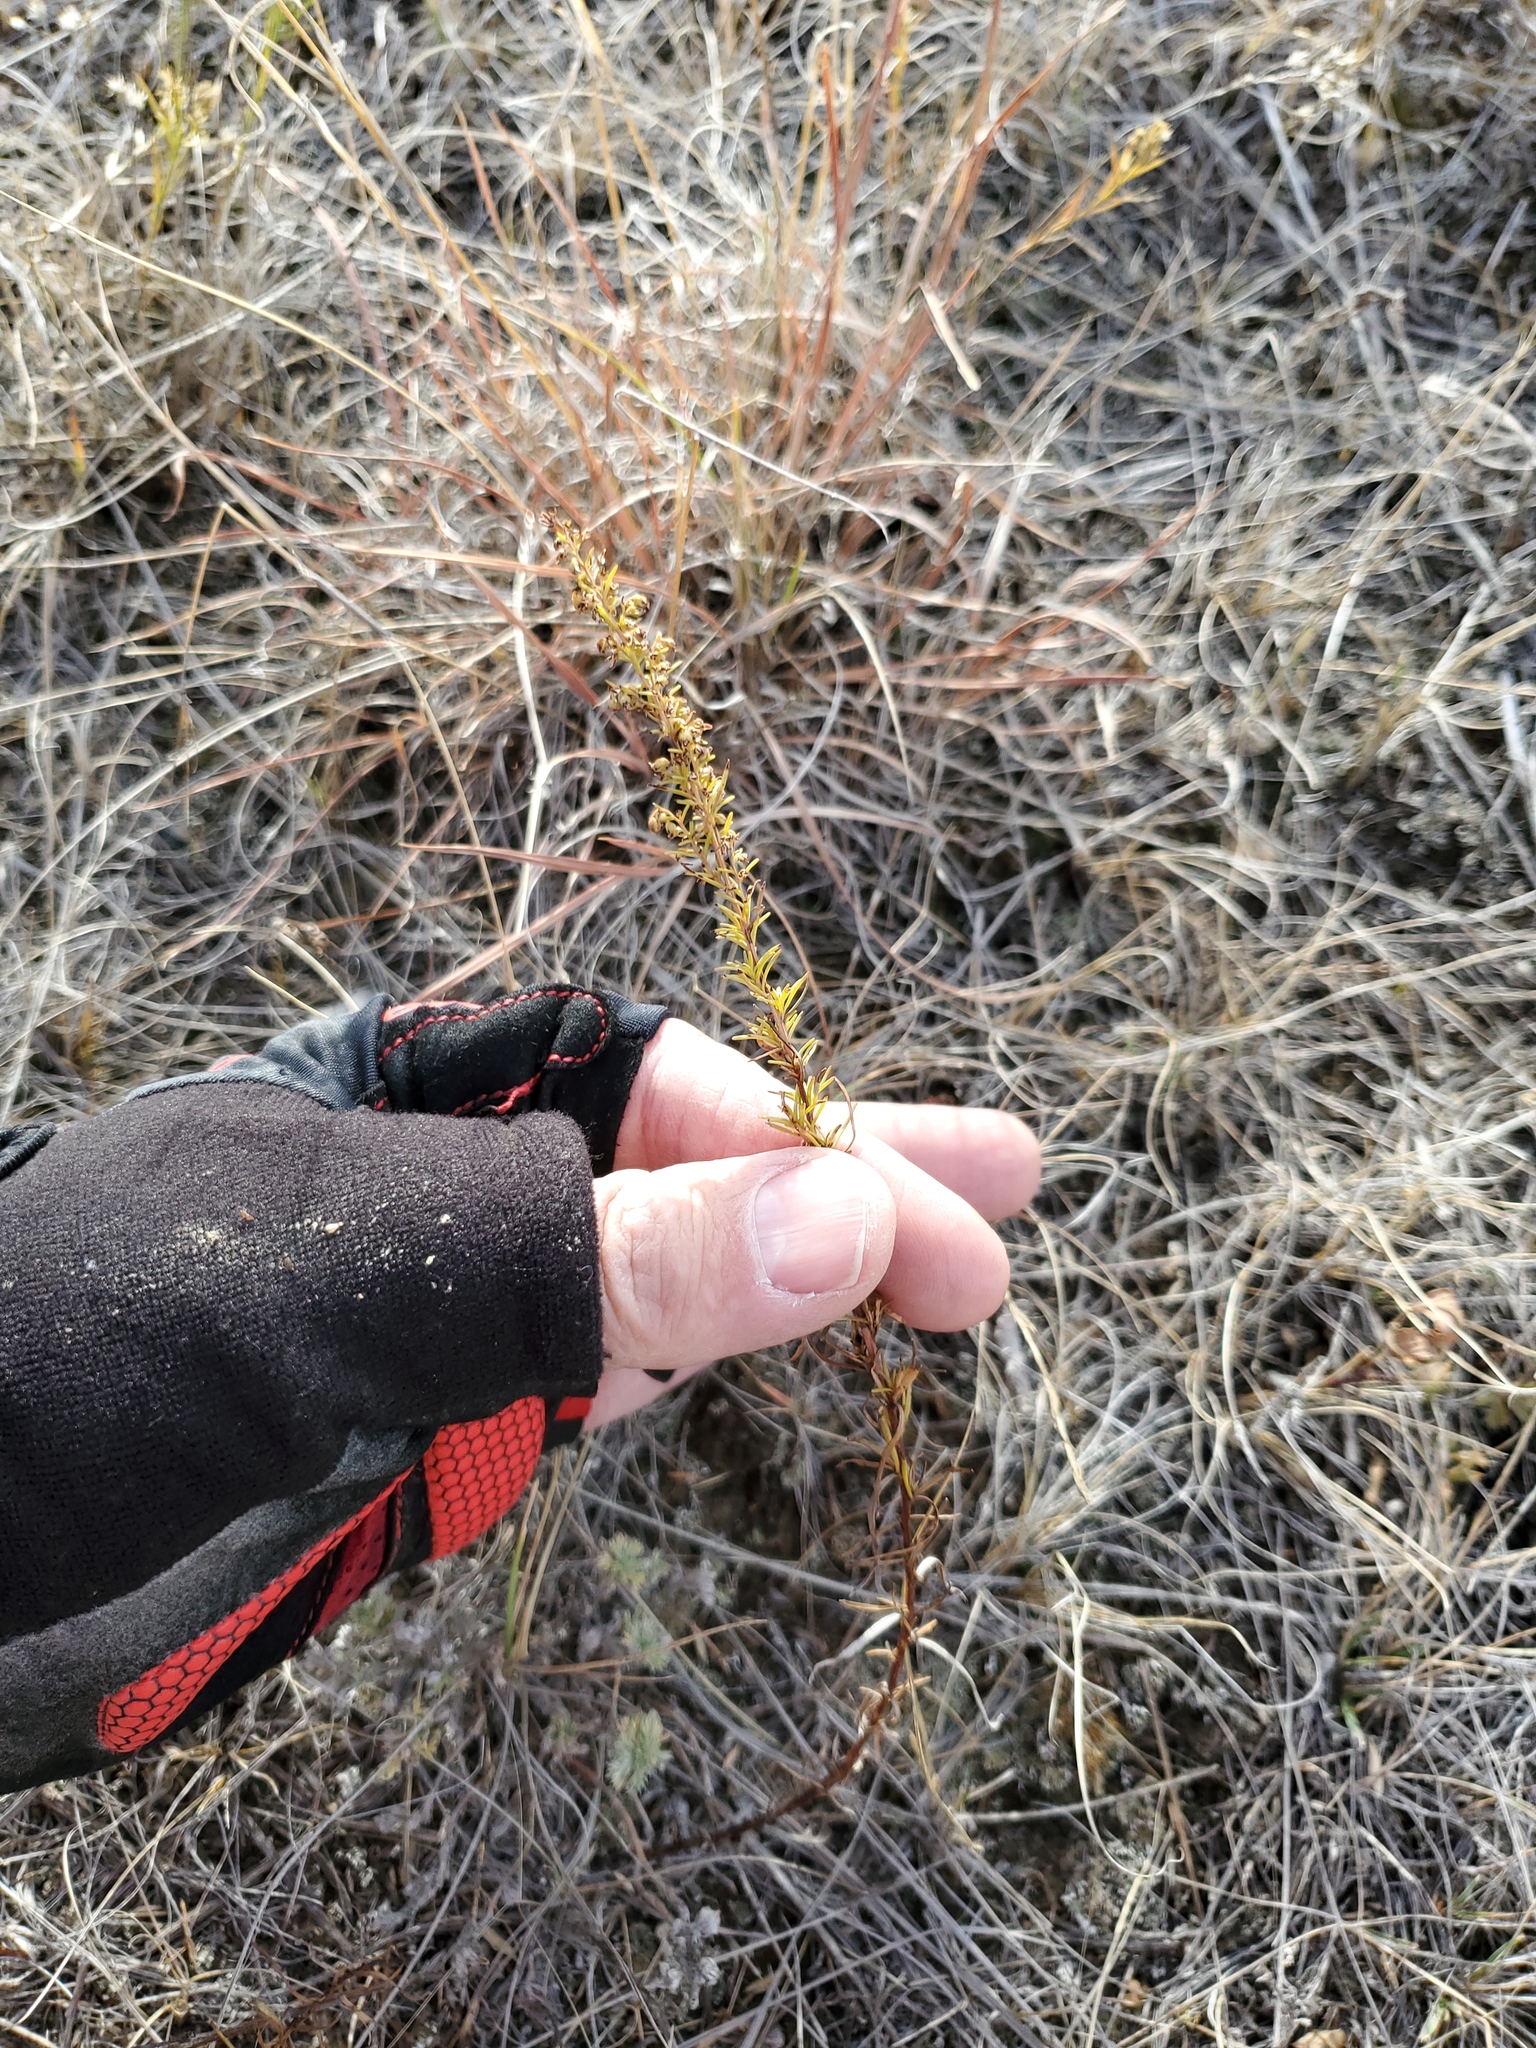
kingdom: Plantae
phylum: Tracheophyta
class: Magnoliopsida
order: Asterales
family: Asteraceae
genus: Artemisia
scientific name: Artemisia campestris
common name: Field wormwood
